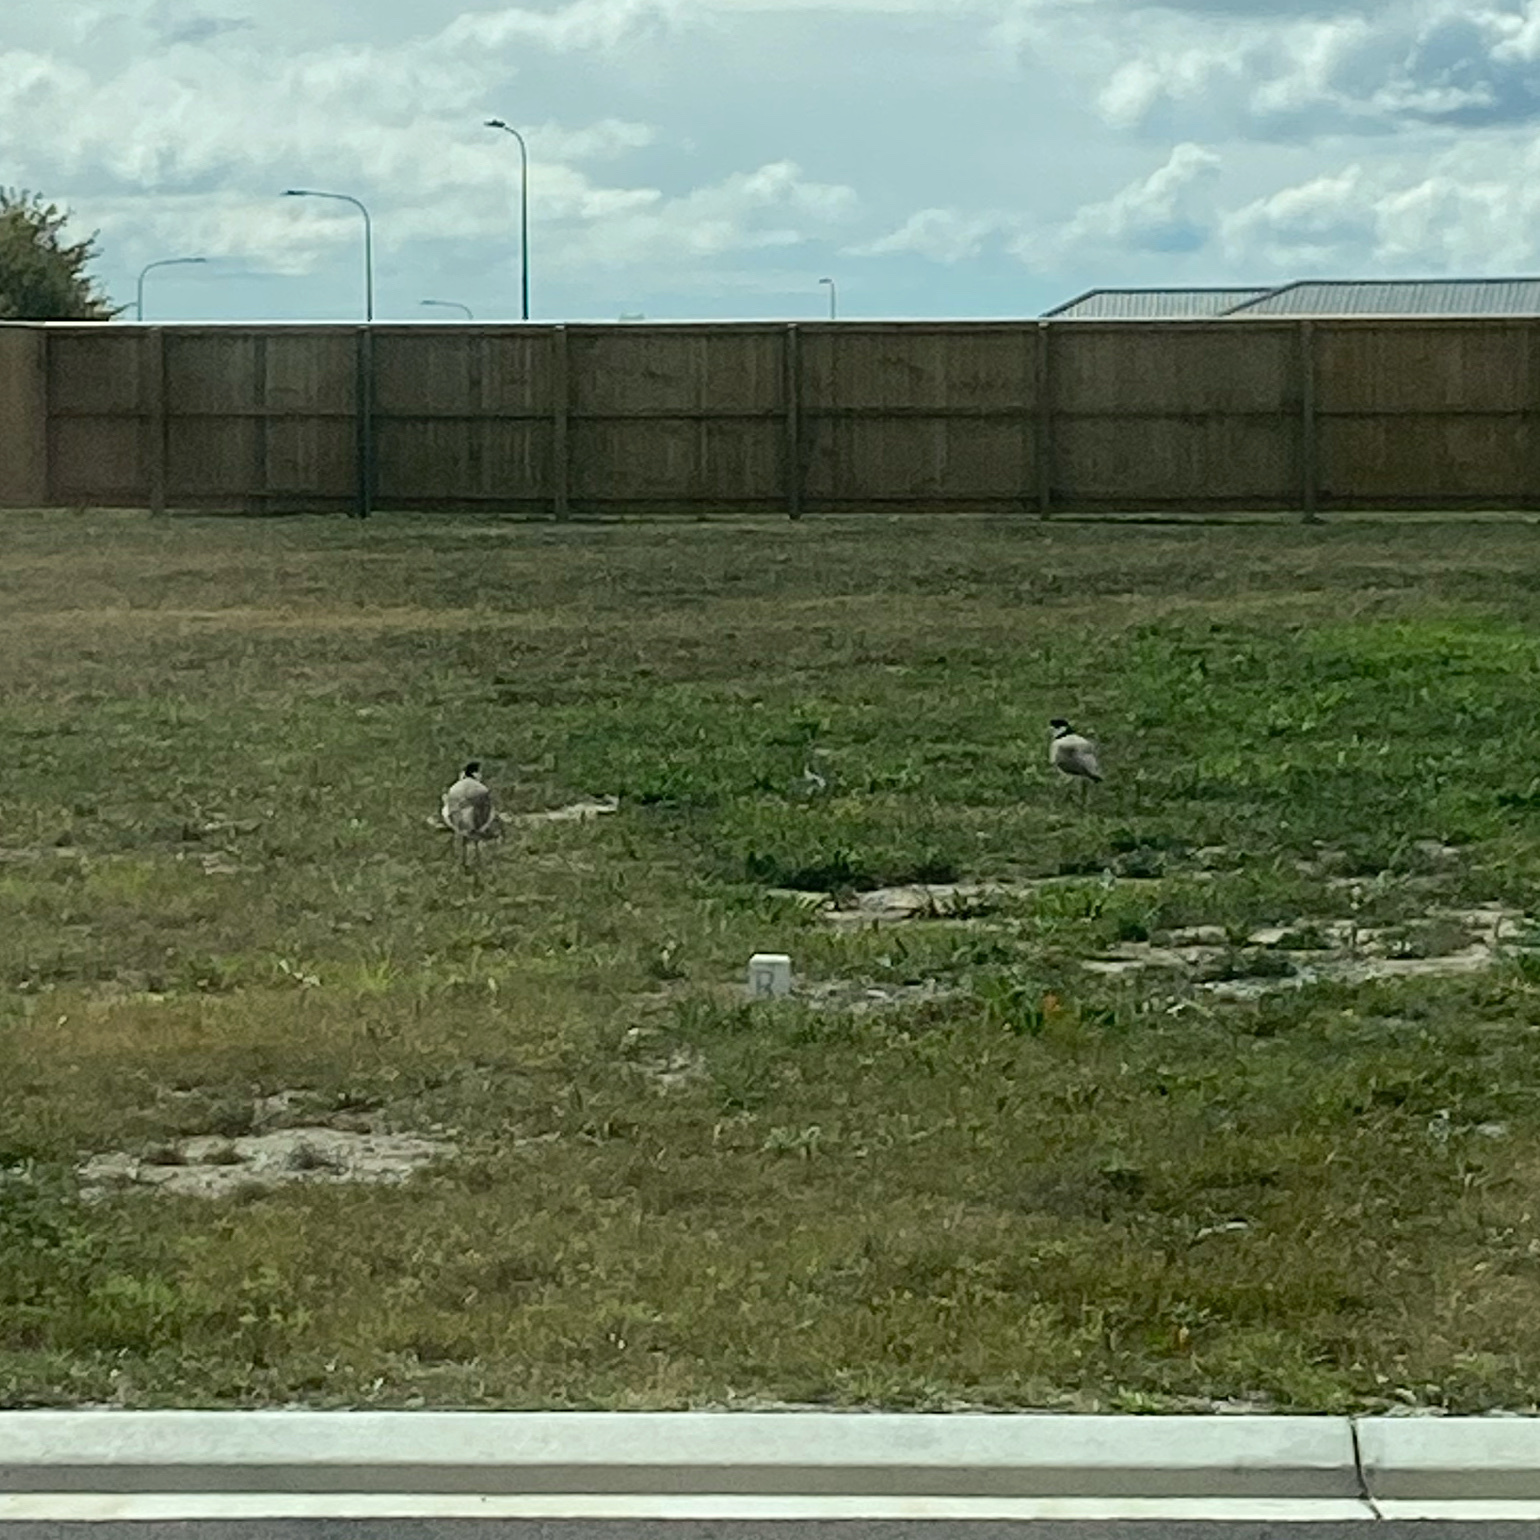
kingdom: Animalia
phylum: Chordata
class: Aves
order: Charadriiformes
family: Charadriidae
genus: Vanellus
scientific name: Vanellus miles
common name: Masked lapwing
